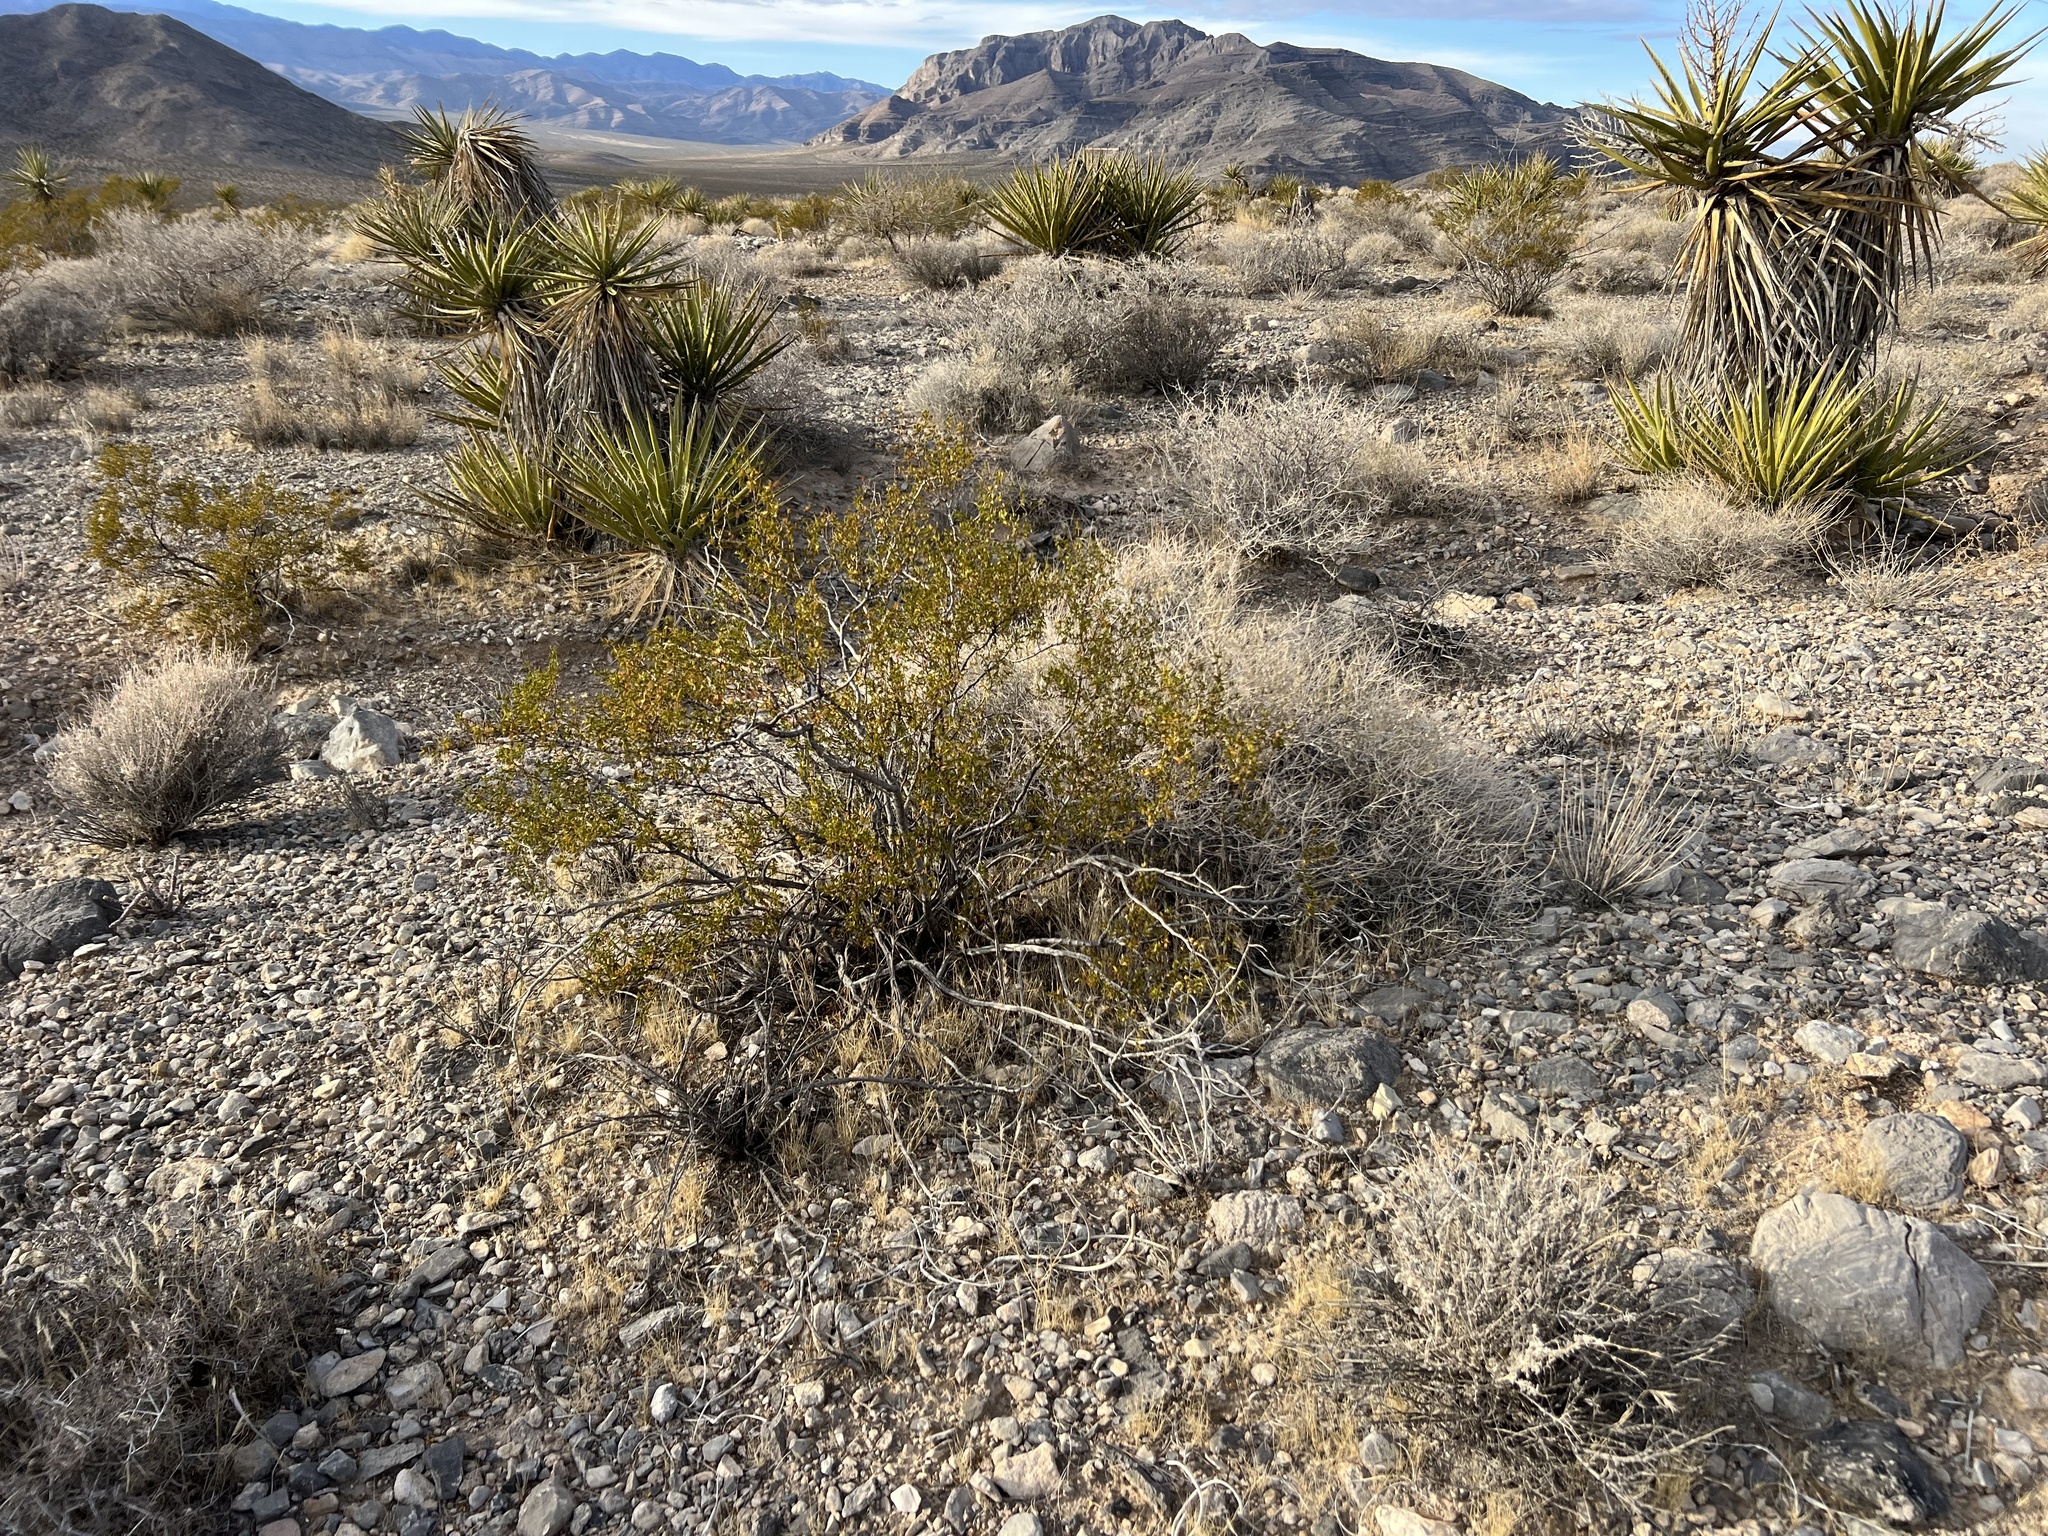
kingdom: Plantae
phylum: Tracheophyta
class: Magnoliopsida
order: Zygophyllales
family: Zygophyllaceae
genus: Larrea
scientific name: Larrea tridentata
